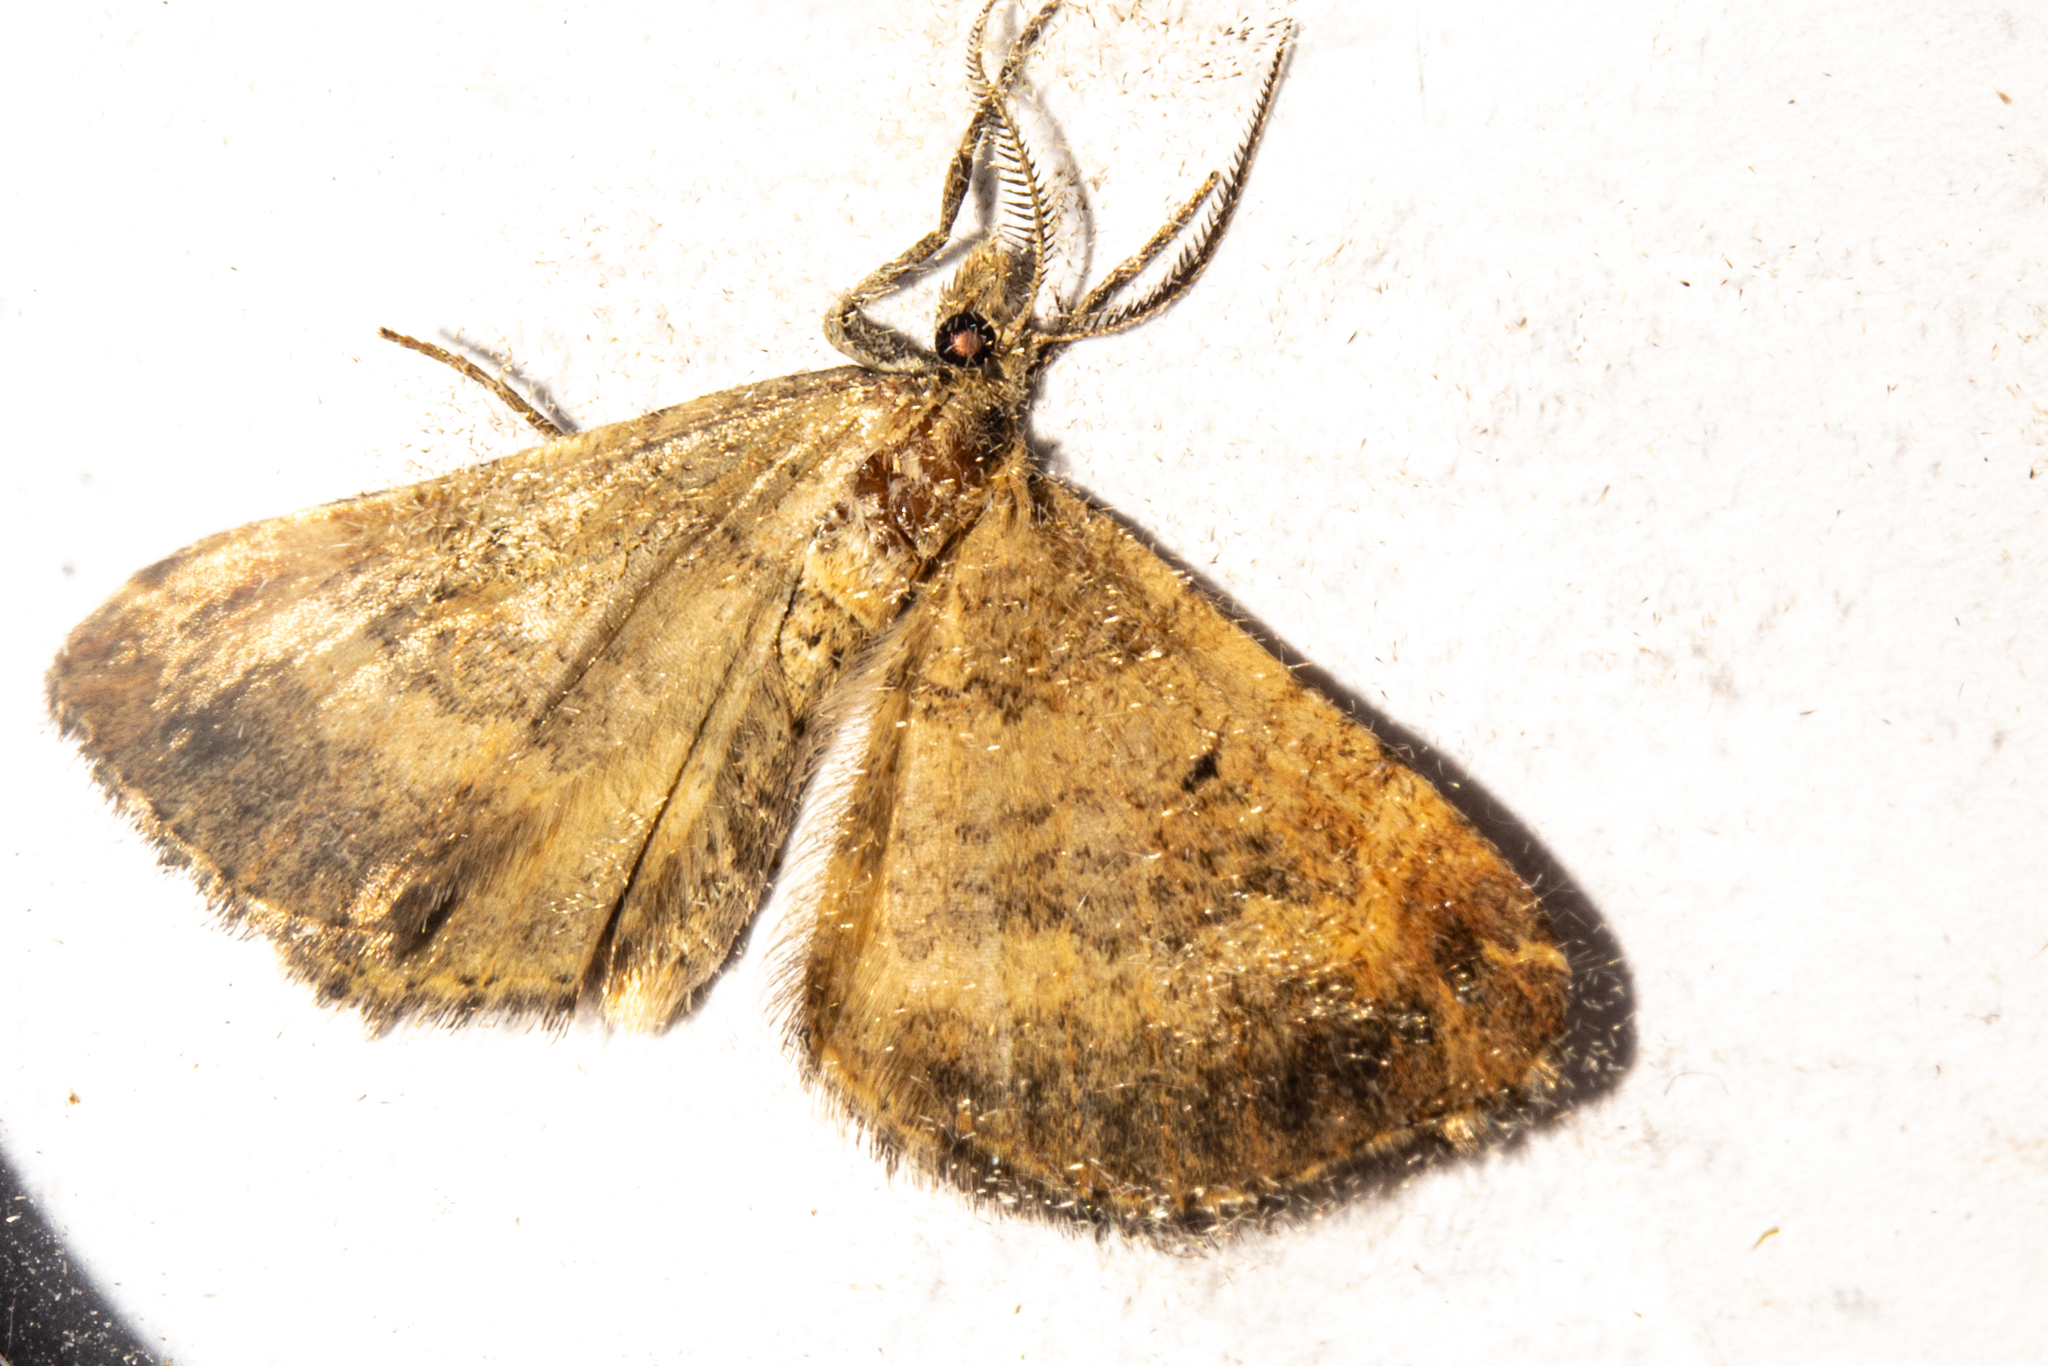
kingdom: Animalia
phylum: Arthropoda
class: Insecta
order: Lepidoptera
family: Geometridae
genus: Asaphodes
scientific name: Asaphodes aegrota
